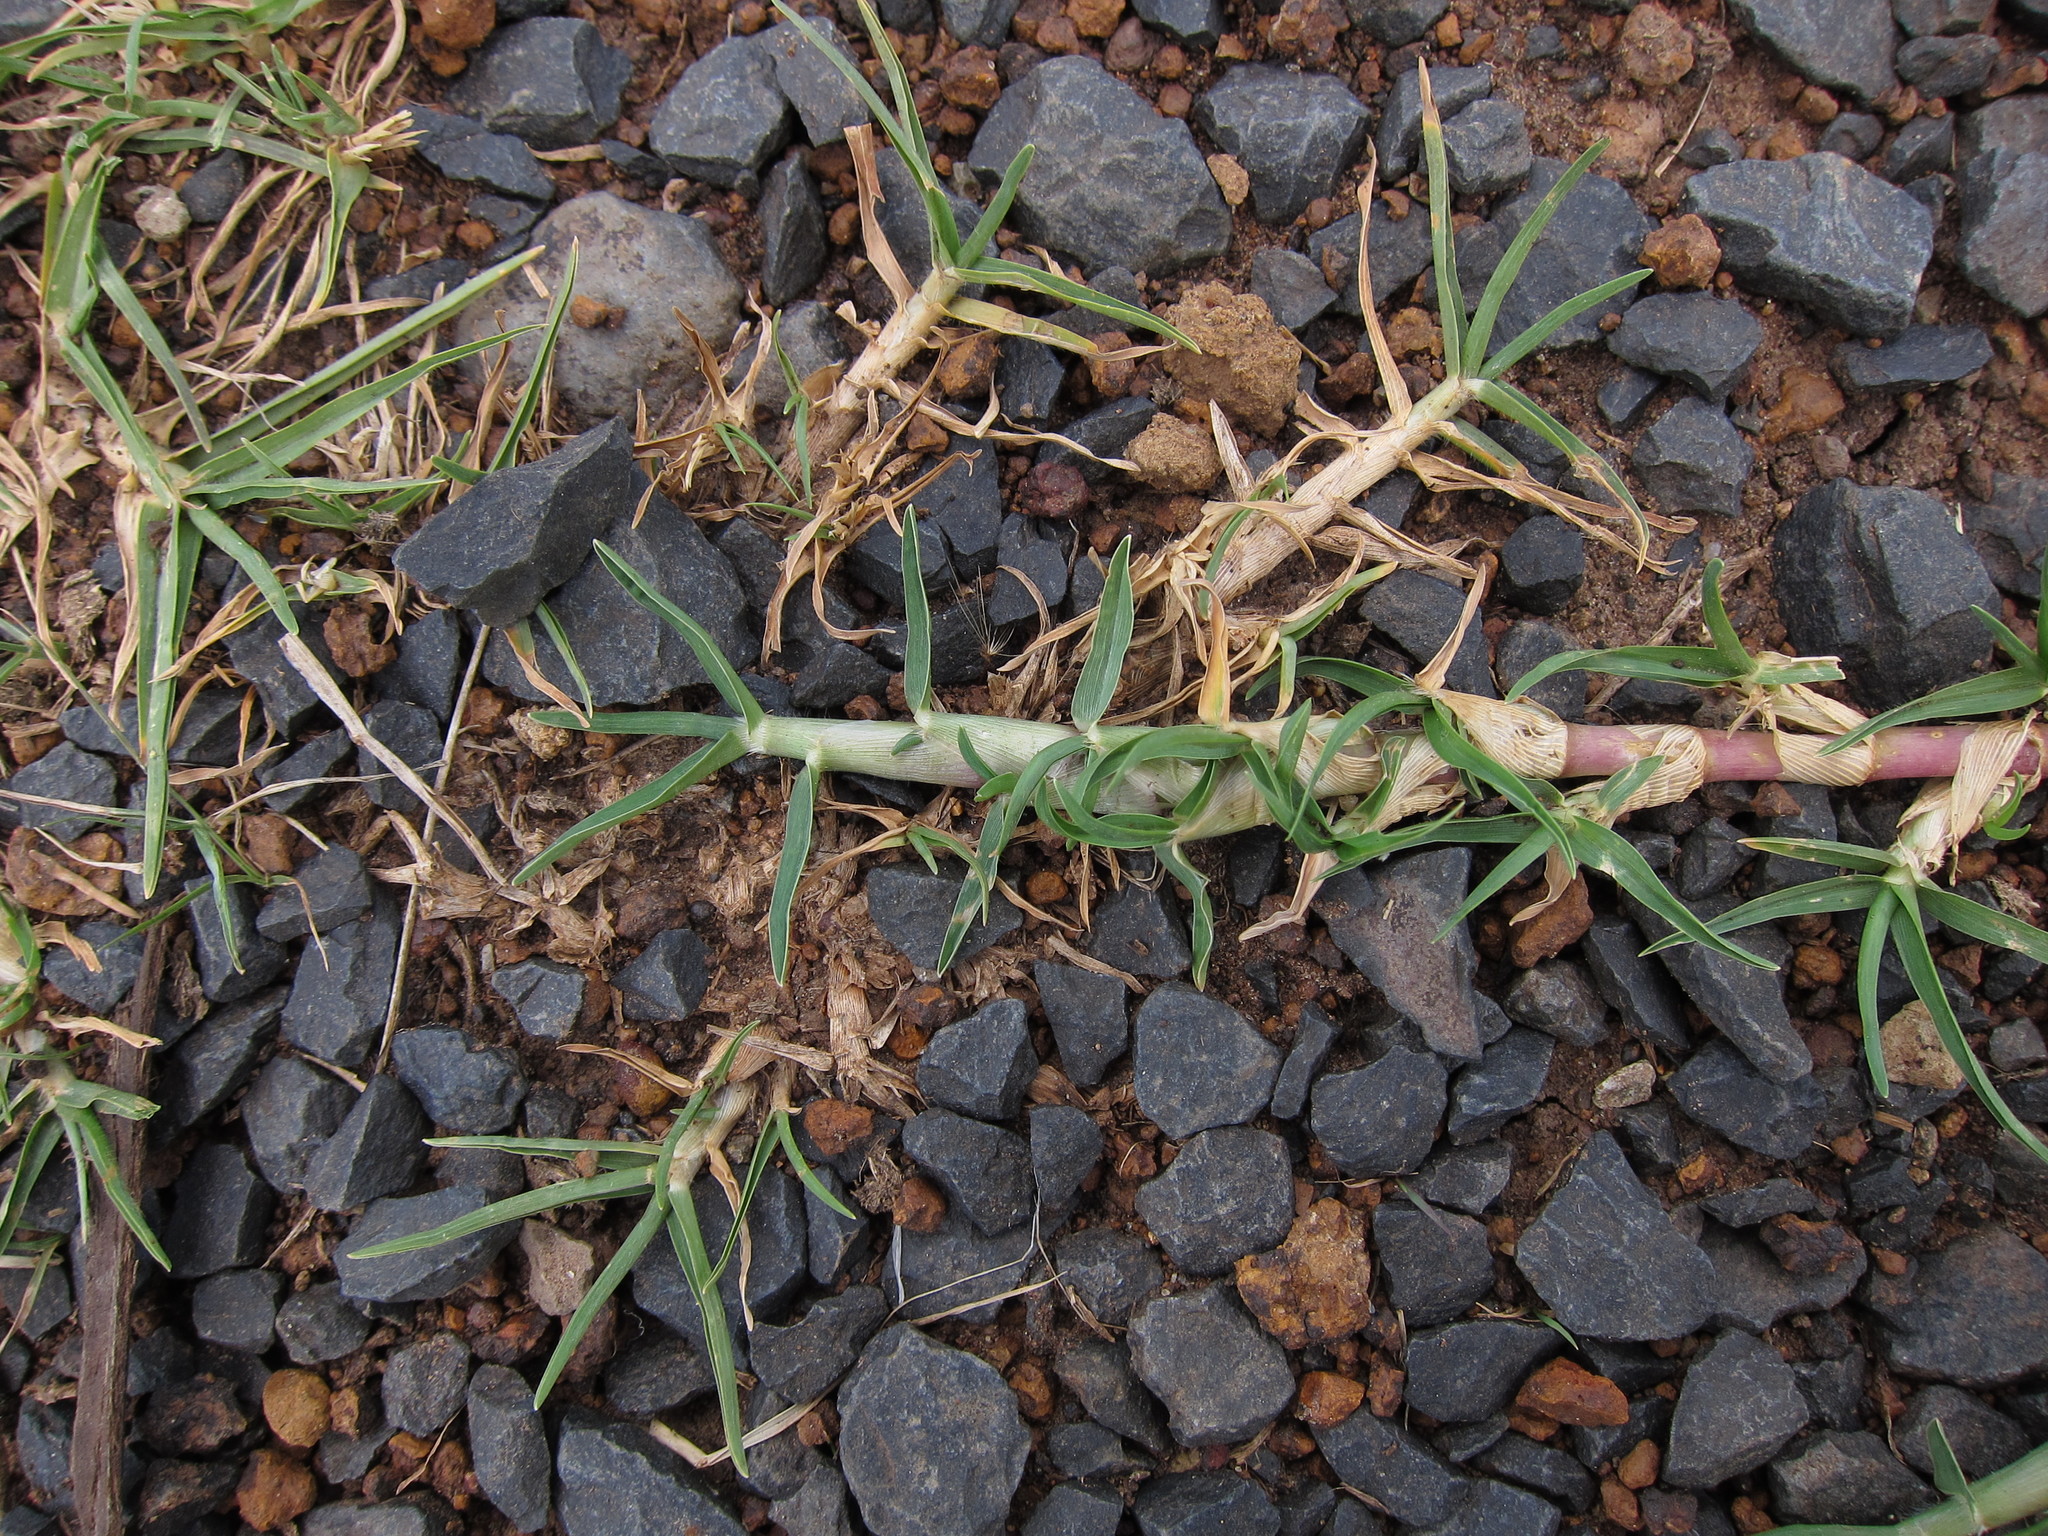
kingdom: Plantae
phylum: Tracheophyta
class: Liliopsida
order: Poales
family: Poaceae
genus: Cenchrus
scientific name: Cenchrus clandestinus
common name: Kikuyugrass
